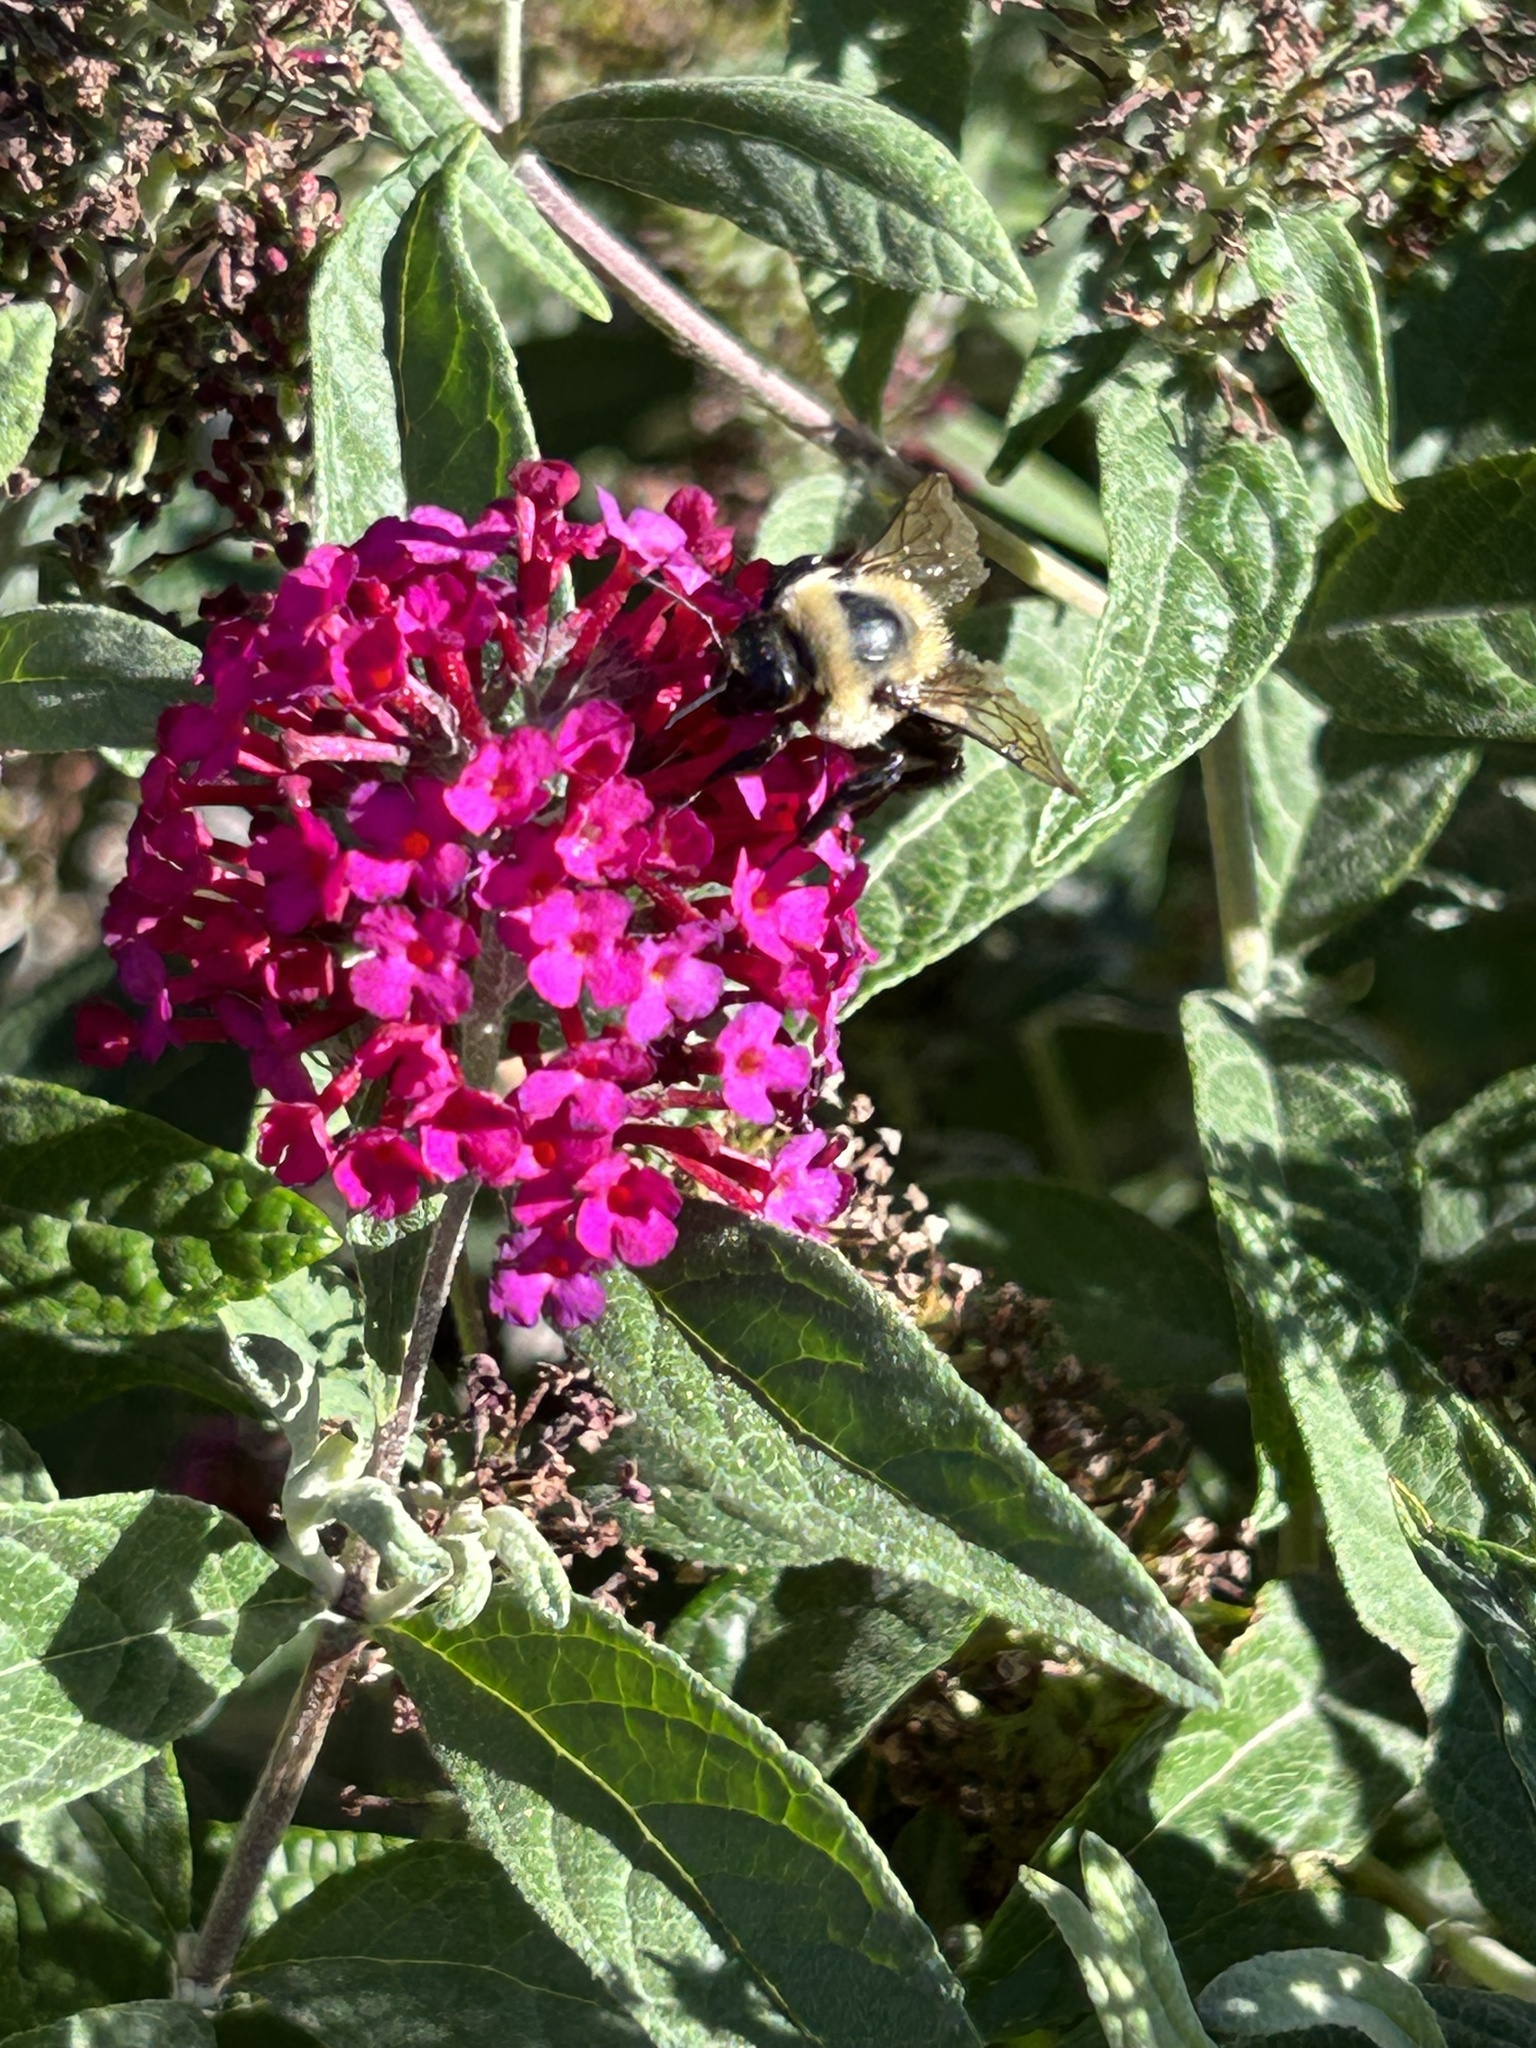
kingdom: Animalia
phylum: Arthropoda
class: Insecta
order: Hymenoptera
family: Apidae
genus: Bombus
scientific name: Bombus griseocollis
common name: Brown-belted bumble bee
